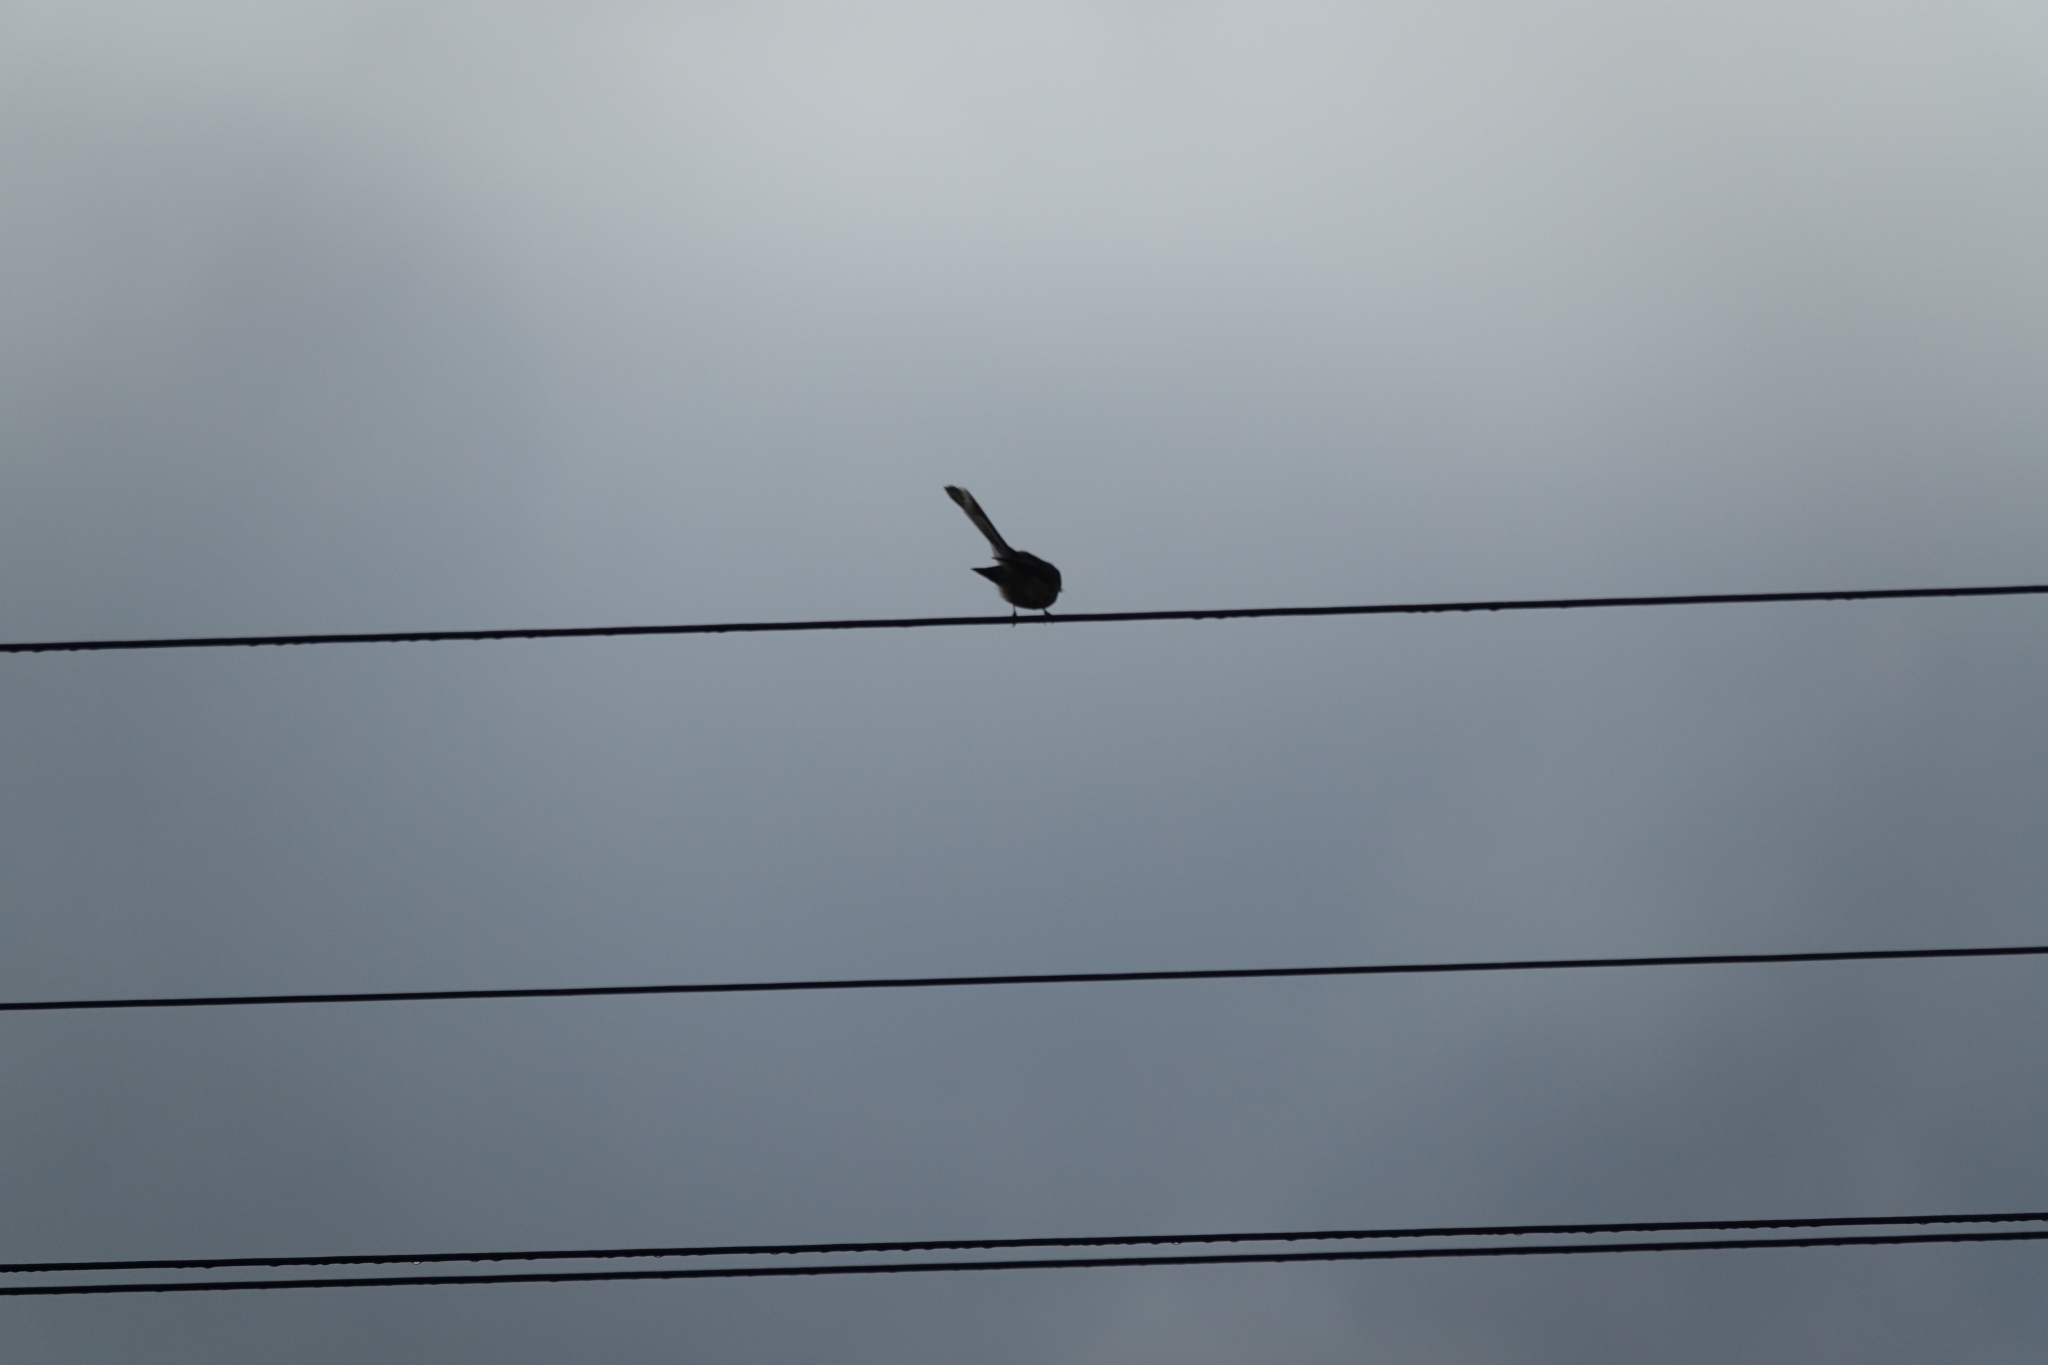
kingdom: Animalia
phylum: Chordata
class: Aves
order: Passeriformes
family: Rhipiduridae
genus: Rhipidura
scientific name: Rhipidura fuliginosa
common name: New zealand fantail
